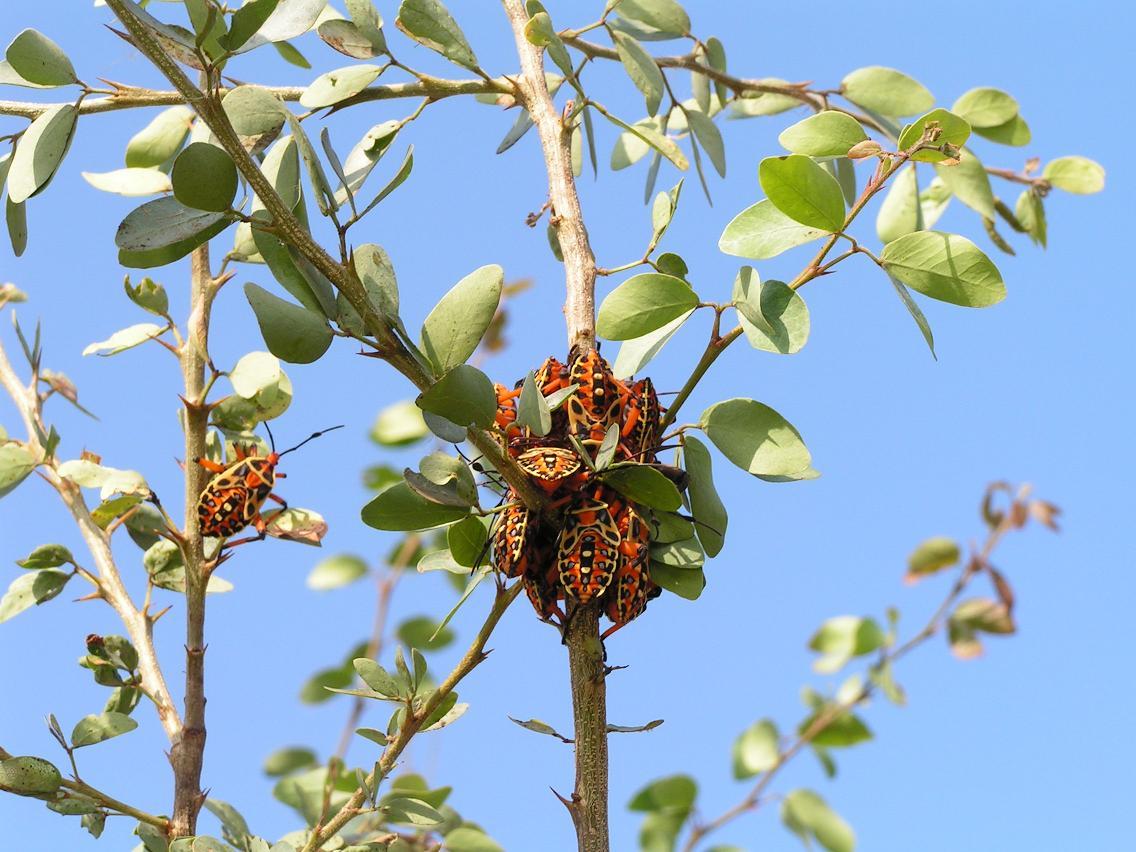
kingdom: Animalia
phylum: Arthropoda
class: Insecta
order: Hemiptera
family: Coreidae
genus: Pachylis
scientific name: Pachylis nervosus
